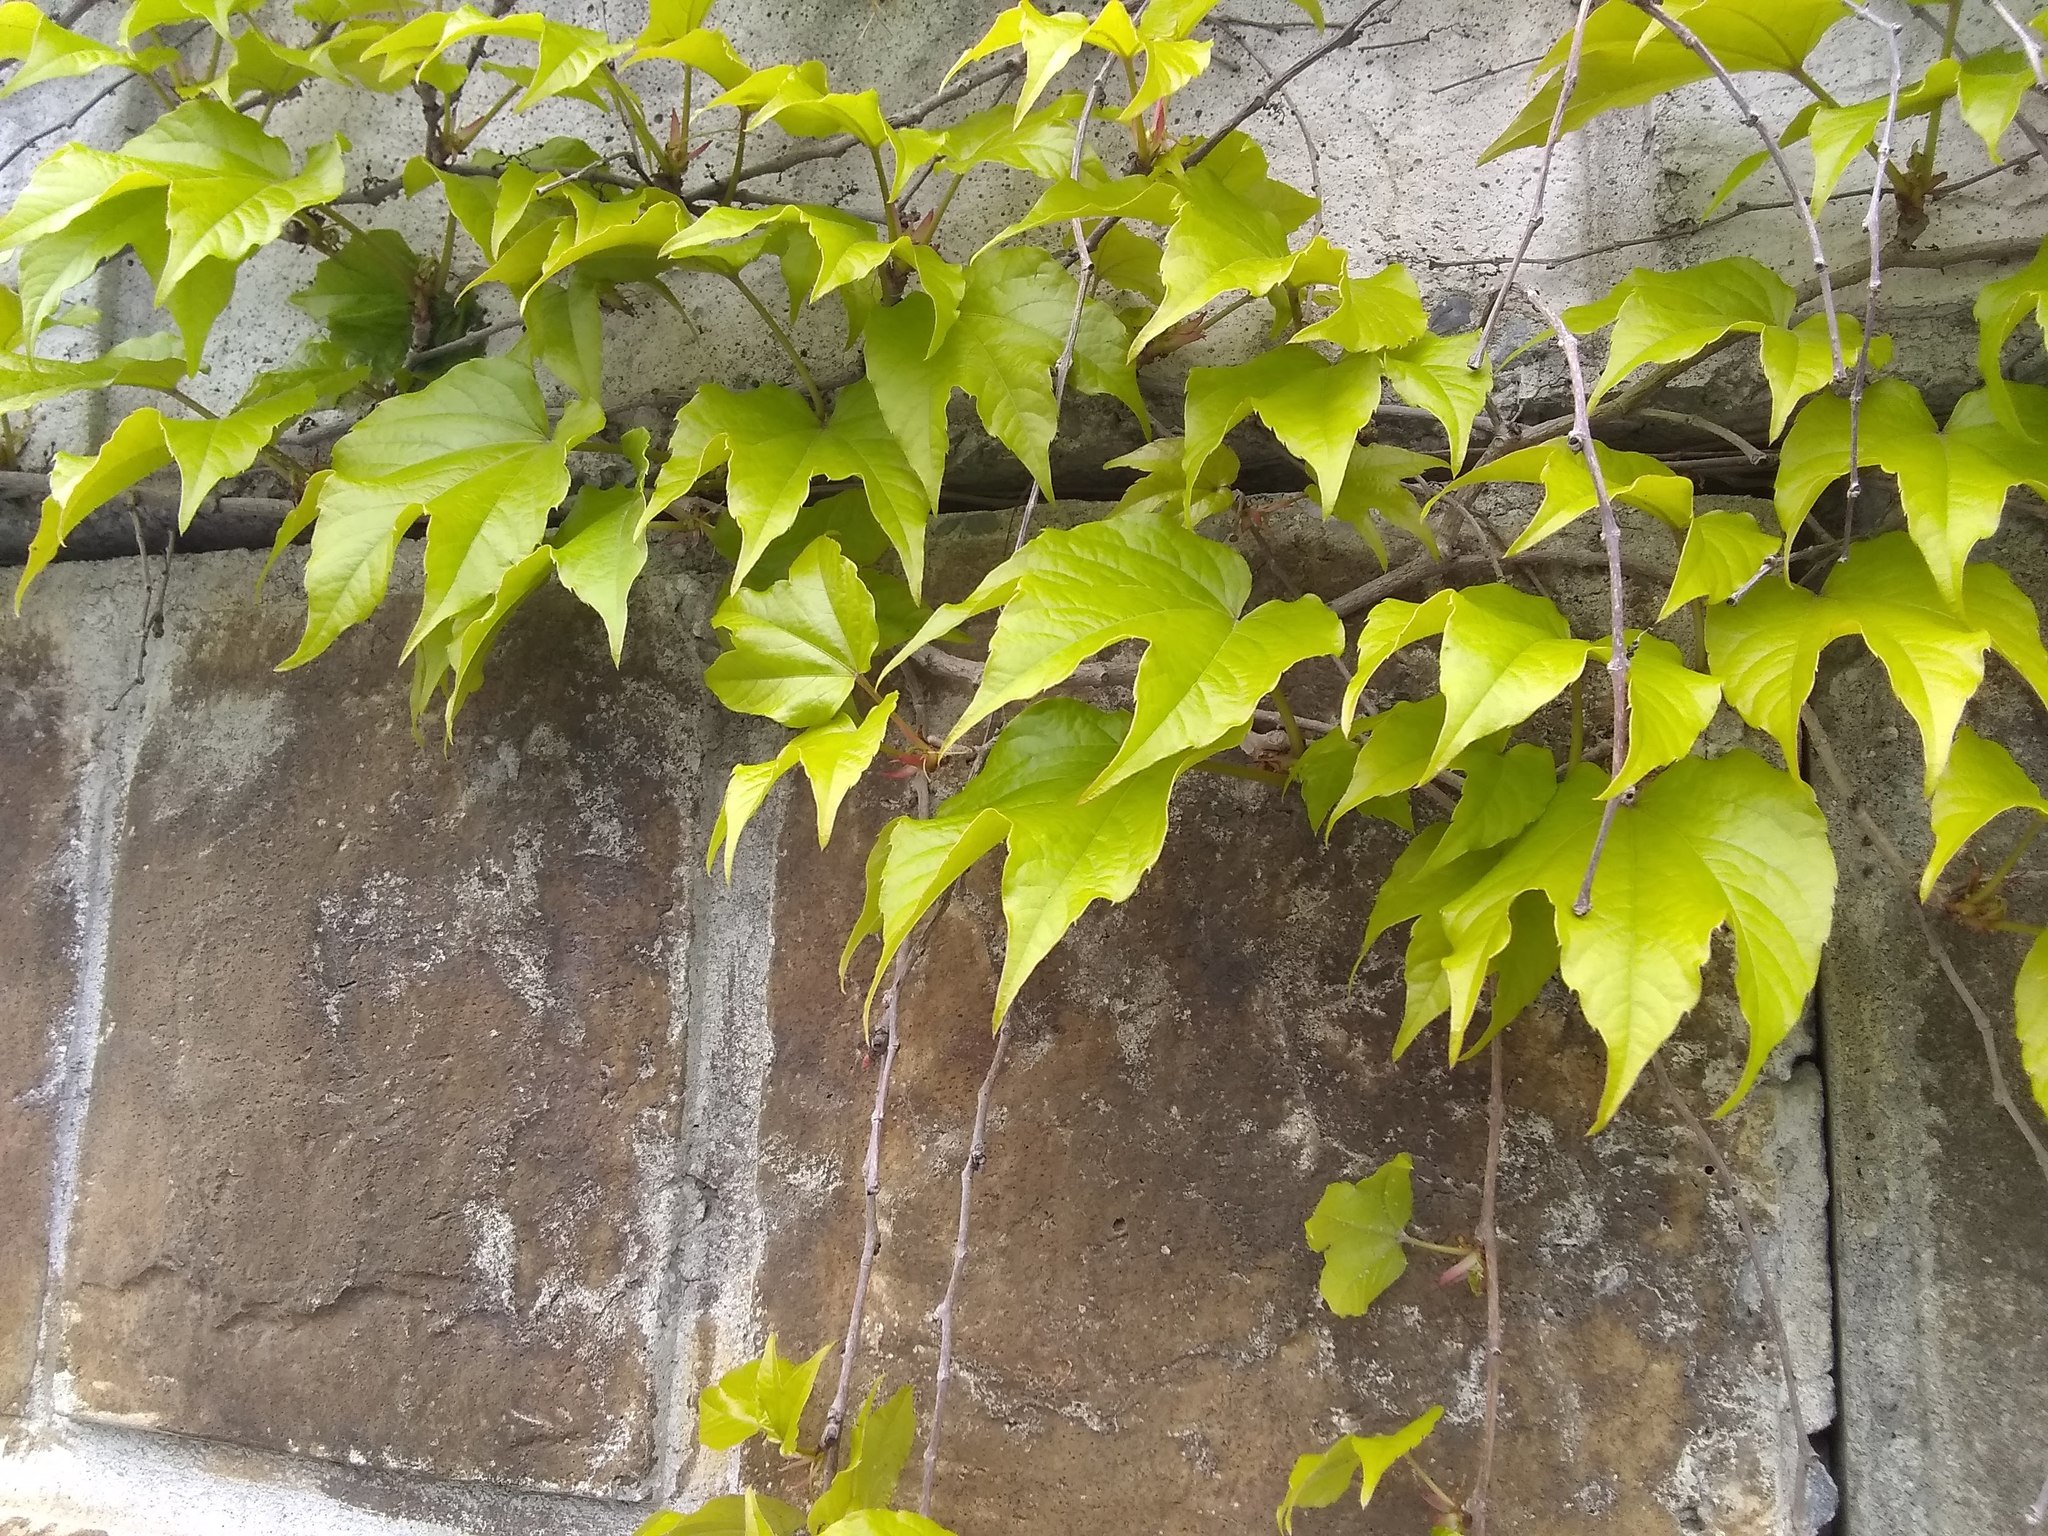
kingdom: Plantae
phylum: Tracheophyta
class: Magnoliopsida
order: Vitales
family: Vitaceae
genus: Parthenocissus
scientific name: Parthenocissus tricuspidata
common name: Boston ivy
